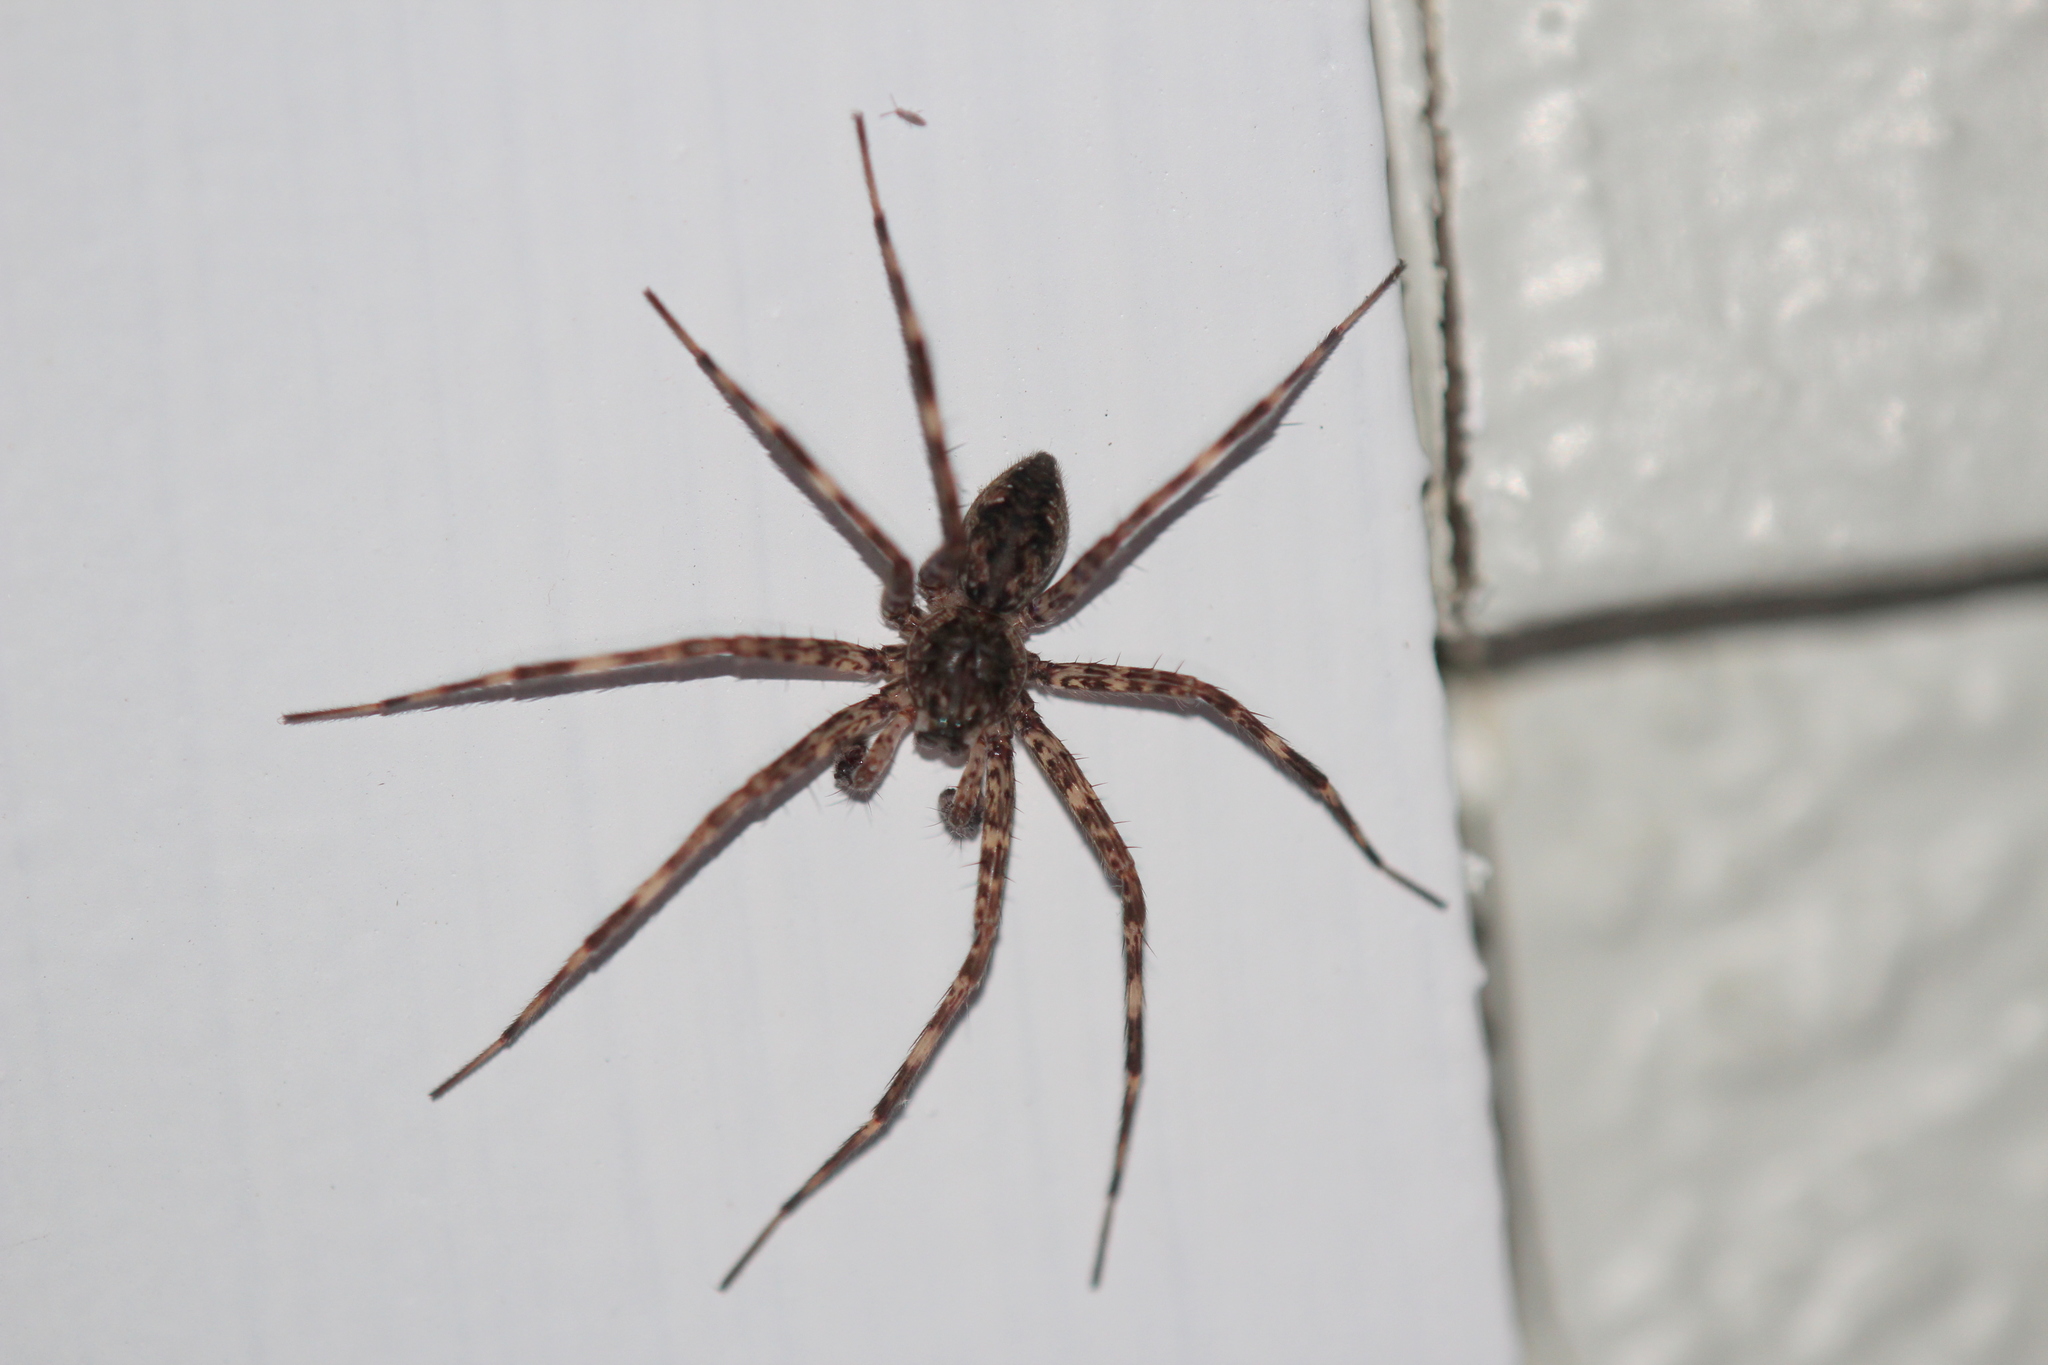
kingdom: Animalia
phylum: Arthropoda
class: Arachnida
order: Araneae
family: Pisauridae
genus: Dolomedes
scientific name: Dolomedes tenebrosus
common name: Dark fishing spider
